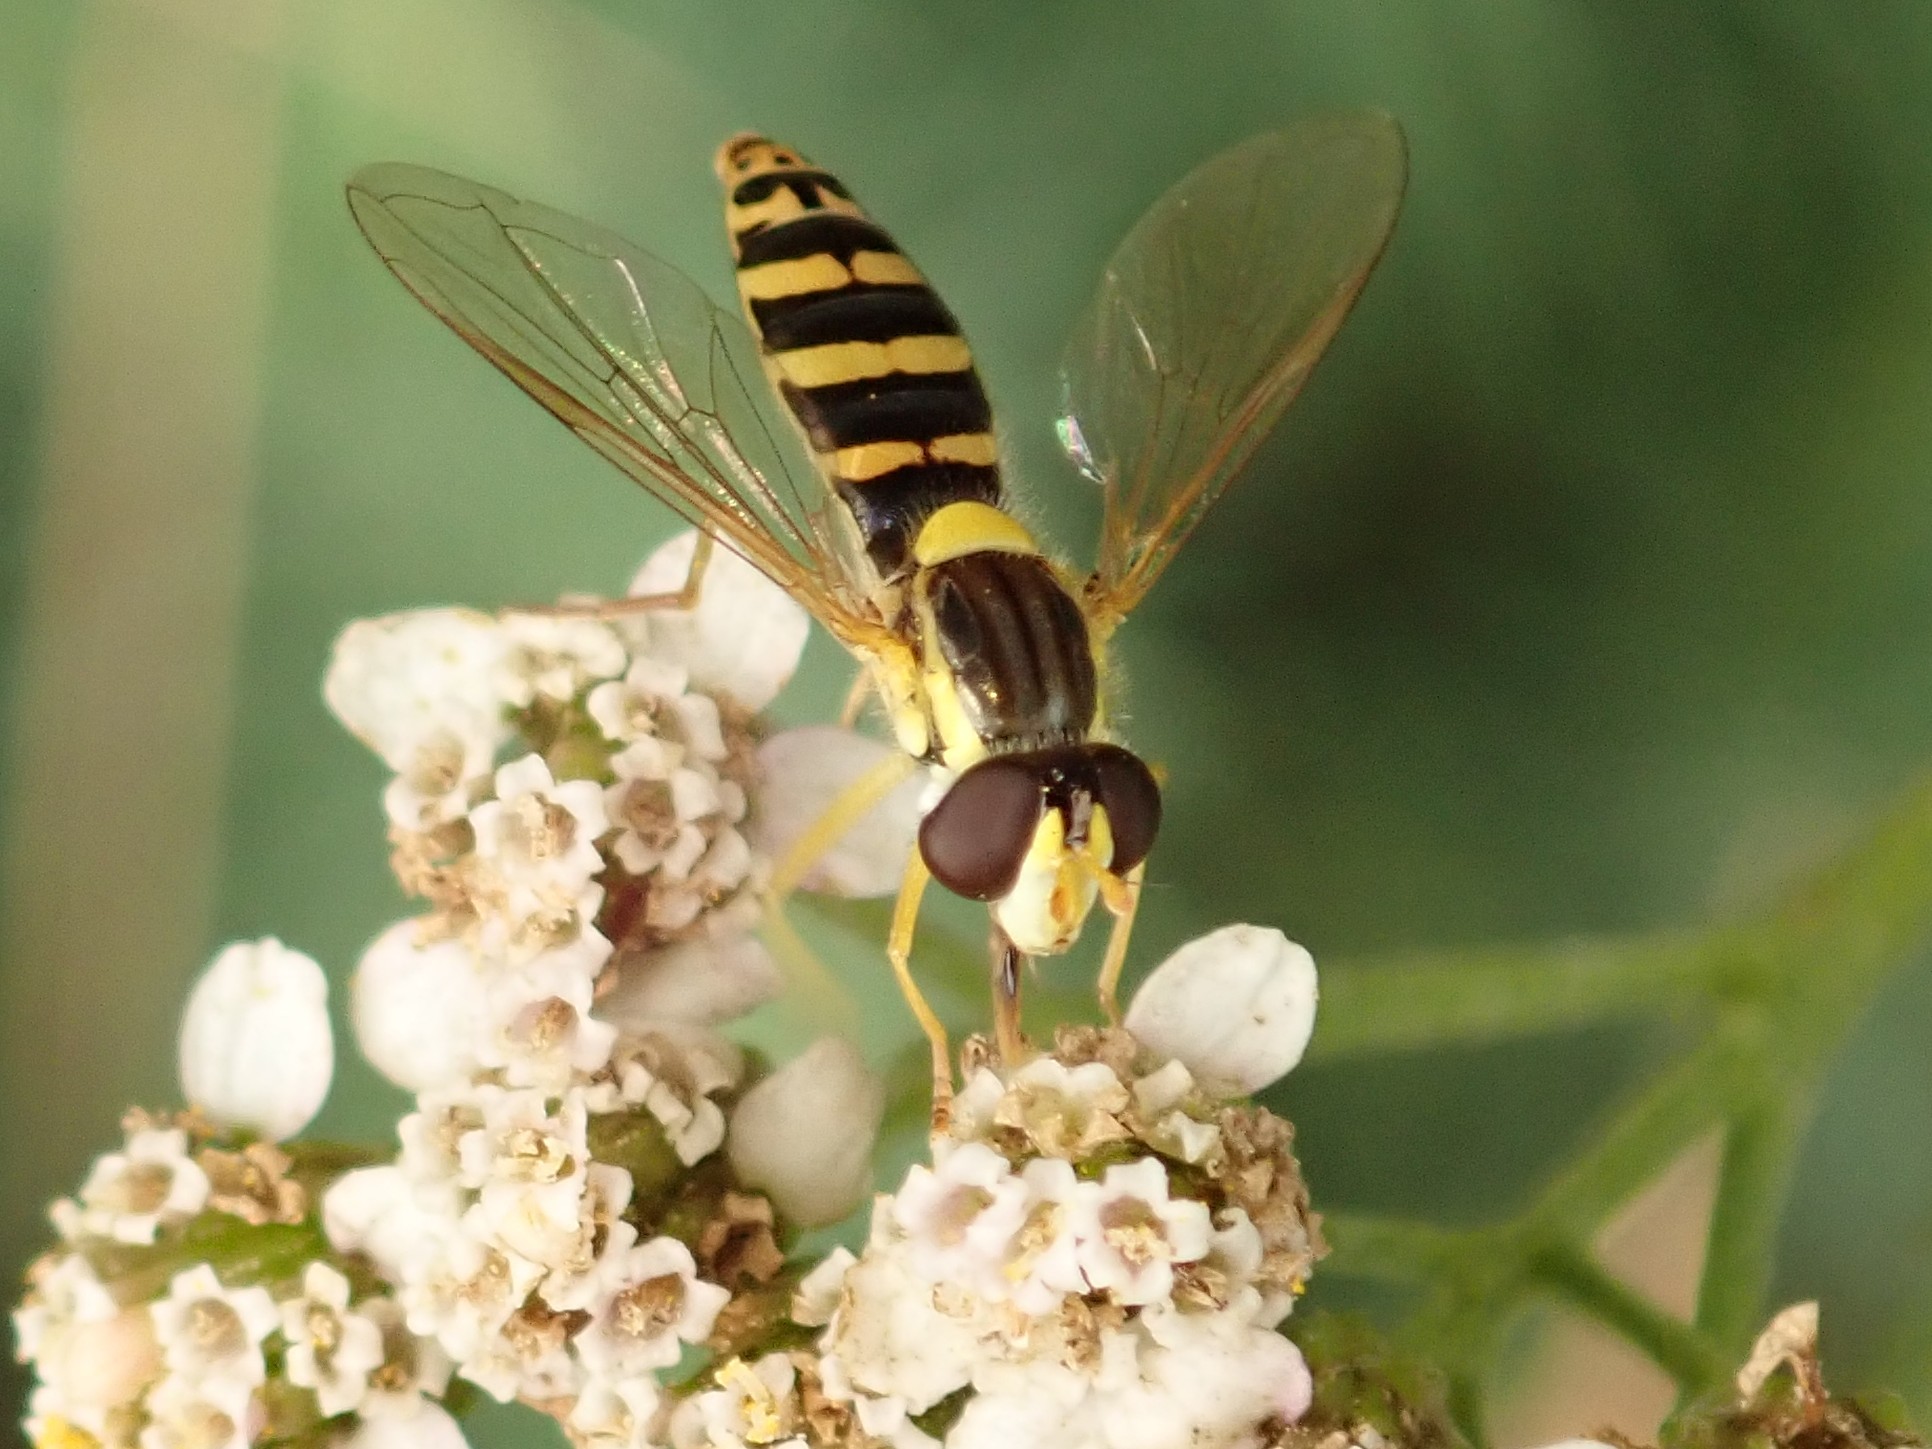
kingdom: Animalia
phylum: Arthropoda
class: Insecta
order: Diptera
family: Syrphidae
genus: Sphaerophoria
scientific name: Sphaerophoria
